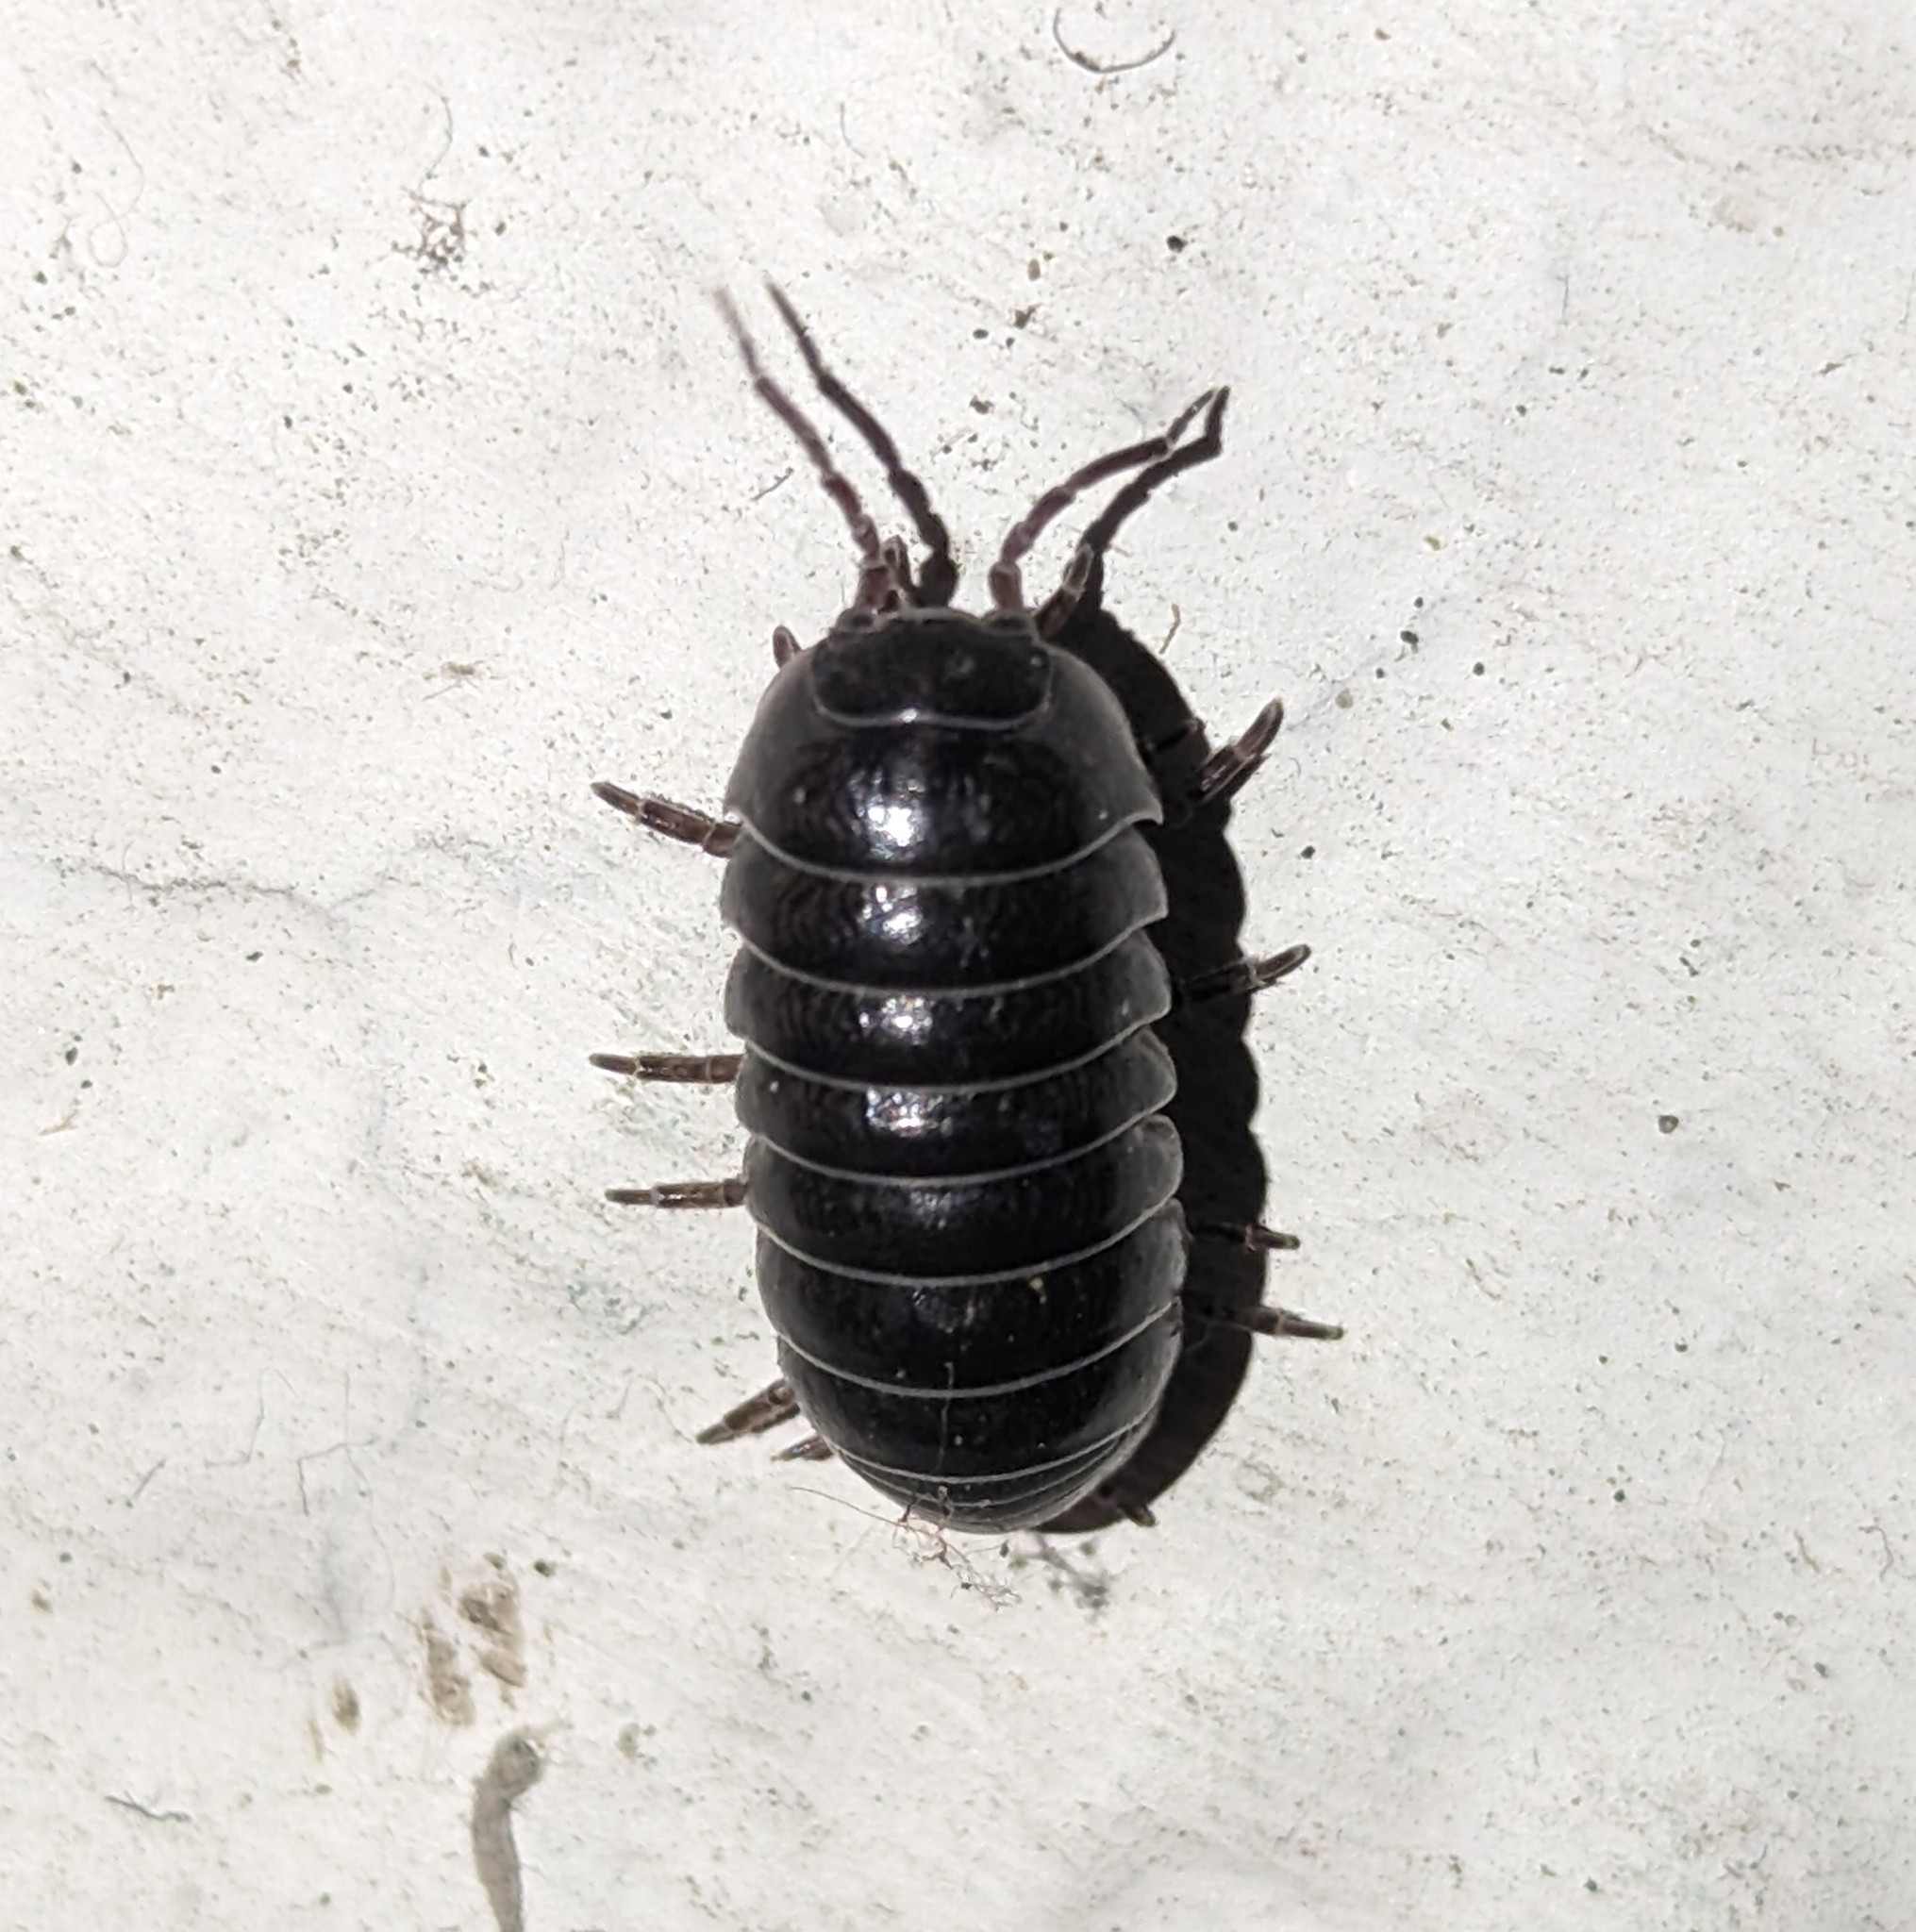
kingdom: Animalia
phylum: Arthropoda
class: Malacostraca
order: Isopoda
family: Armadillidiidae
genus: Armadillidium
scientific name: Armadillidium vulgare
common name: Common pill woodlouse
